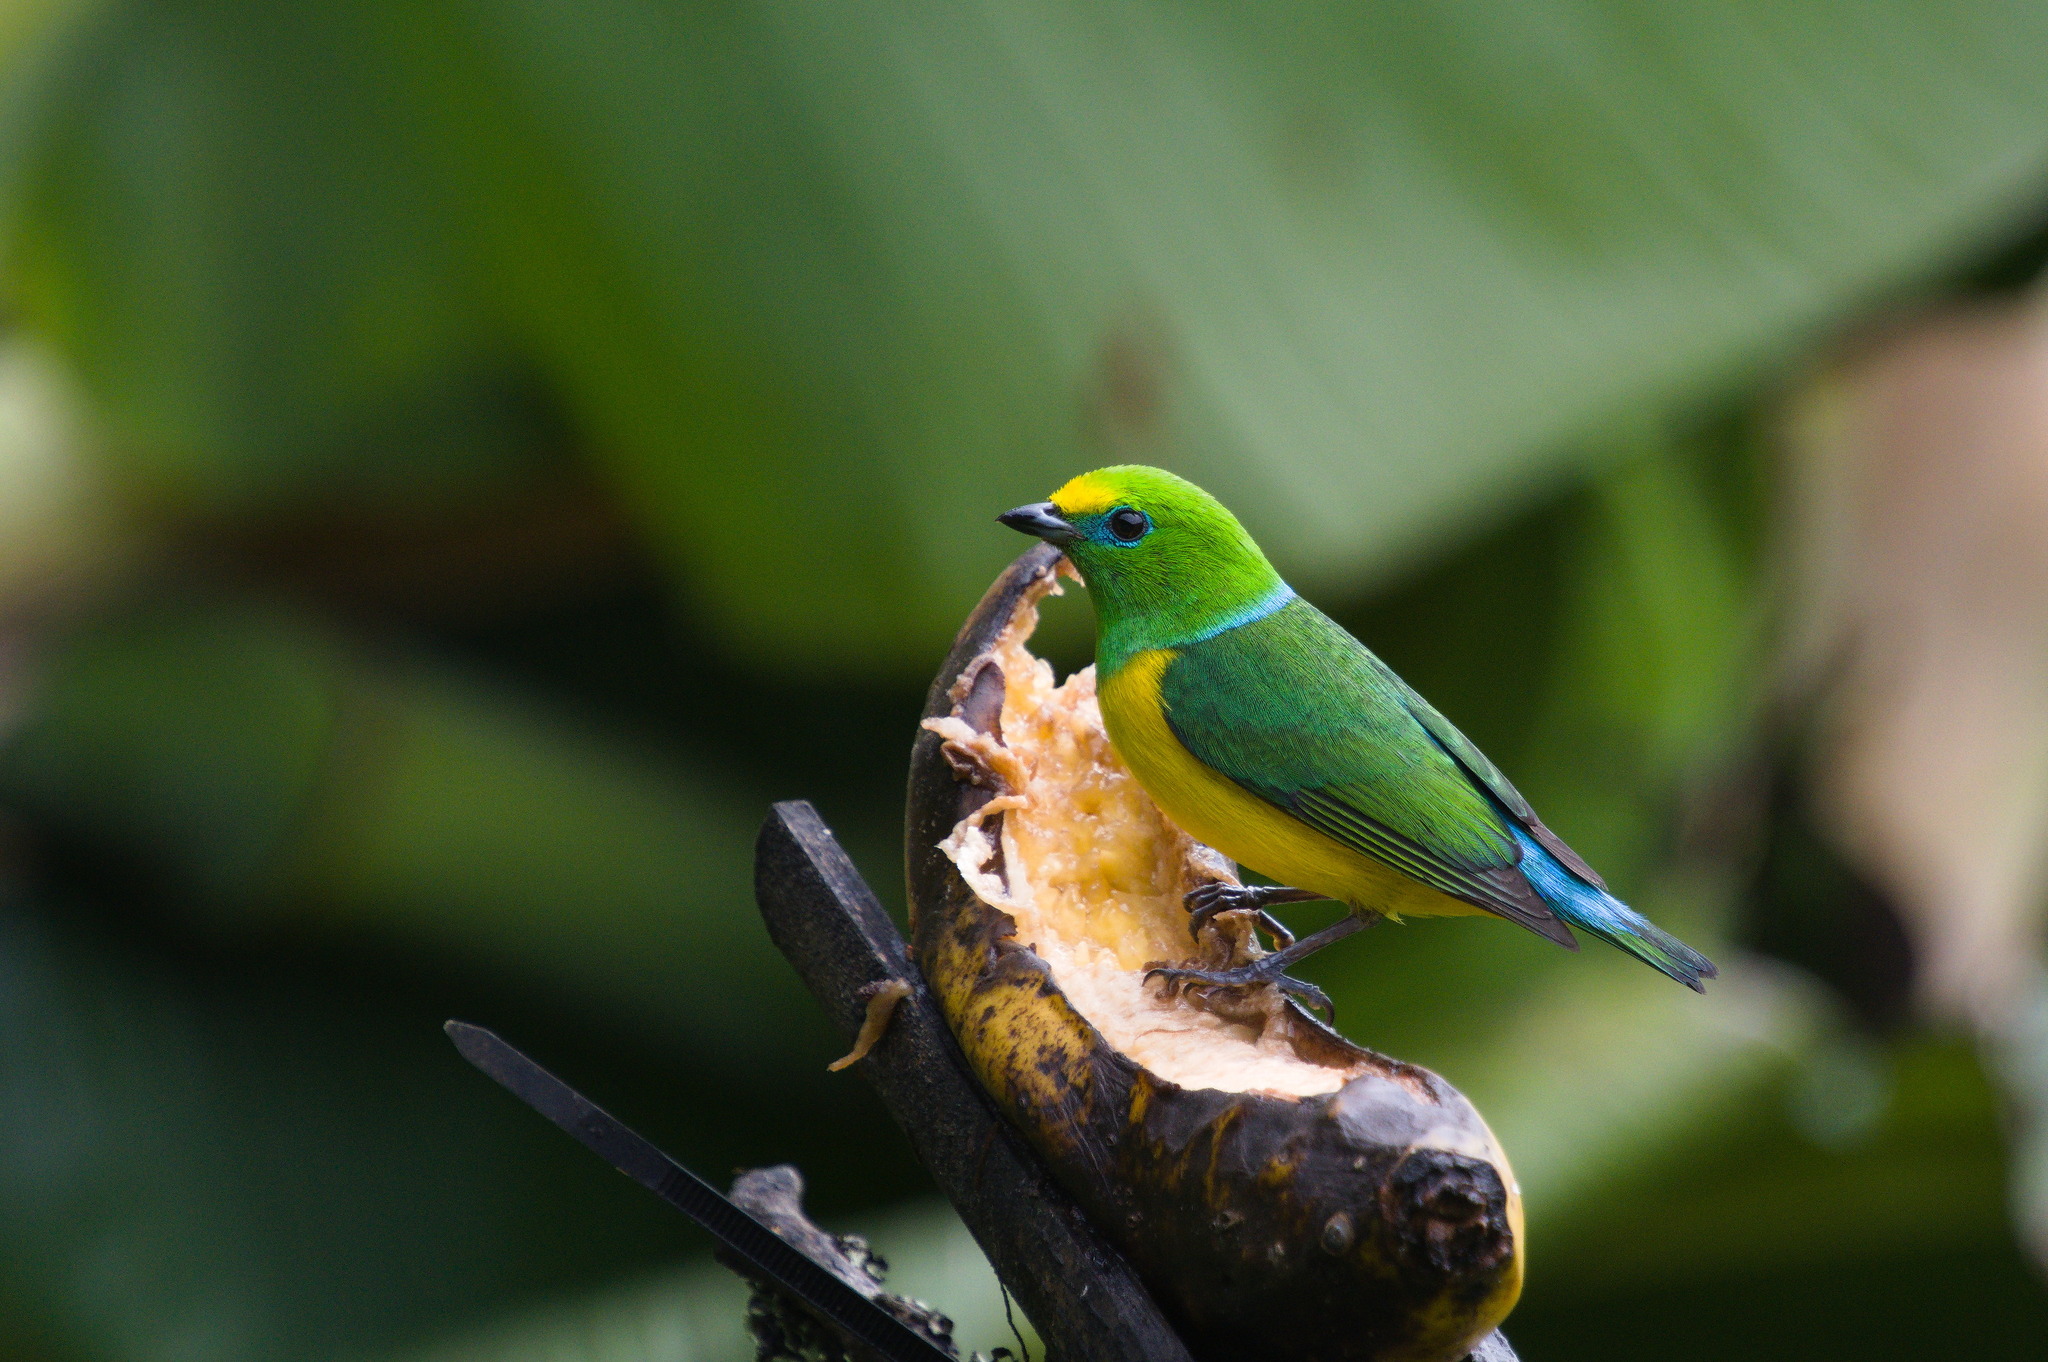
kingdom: Animalia
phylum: Chordata
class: Aves
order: Passeriformes
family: Fringillidae
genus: Chlorophonia
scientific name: Chlorophonia cyanea
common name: Blue-naped chlorophonia
